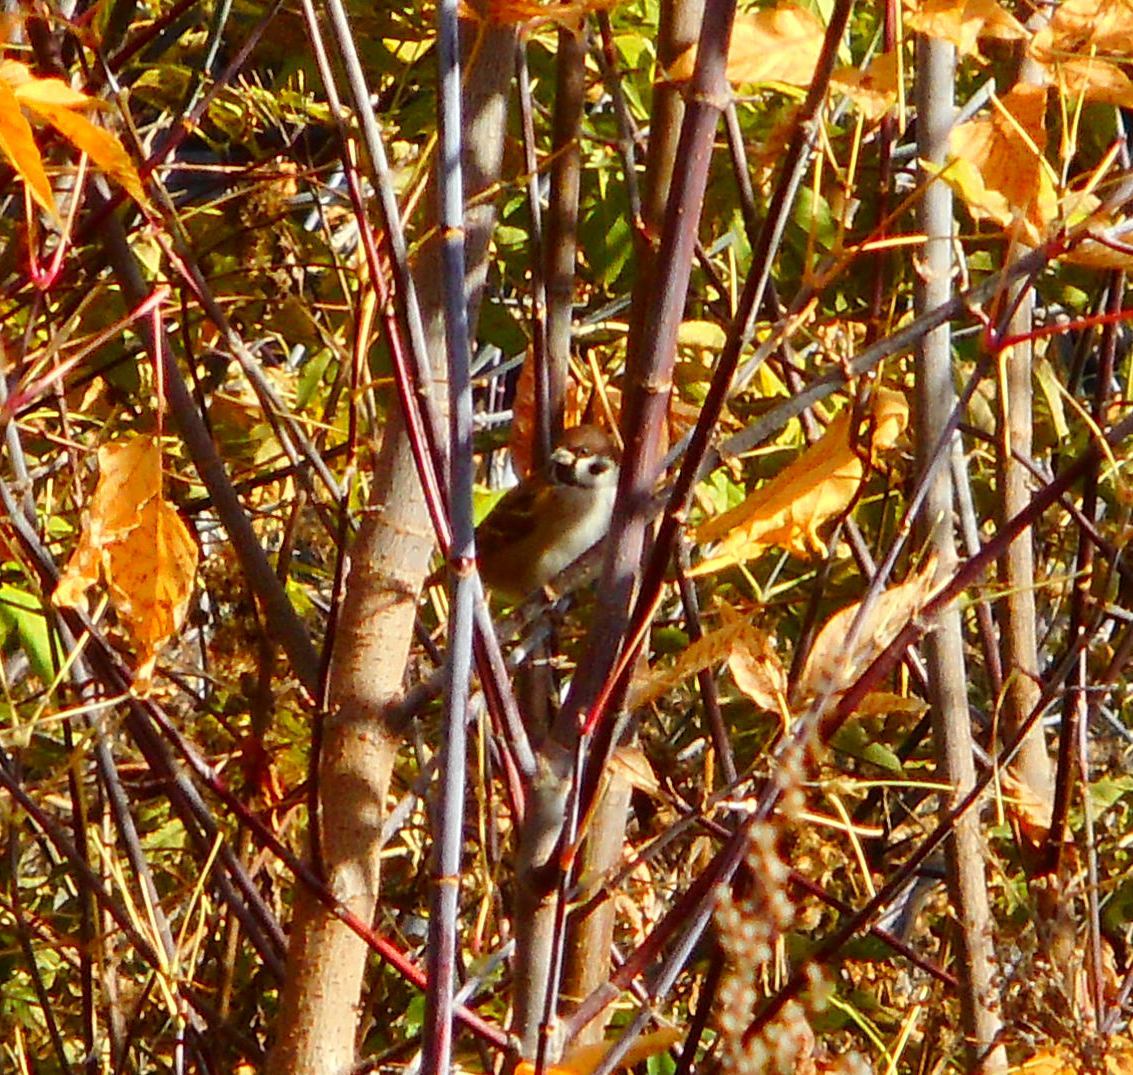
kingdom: Animalia
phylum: Chordata
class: Aves
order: Passeriformes
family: Passeridae
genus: Passer
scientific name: Passer montanus
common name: Eurasian tree sparrow
